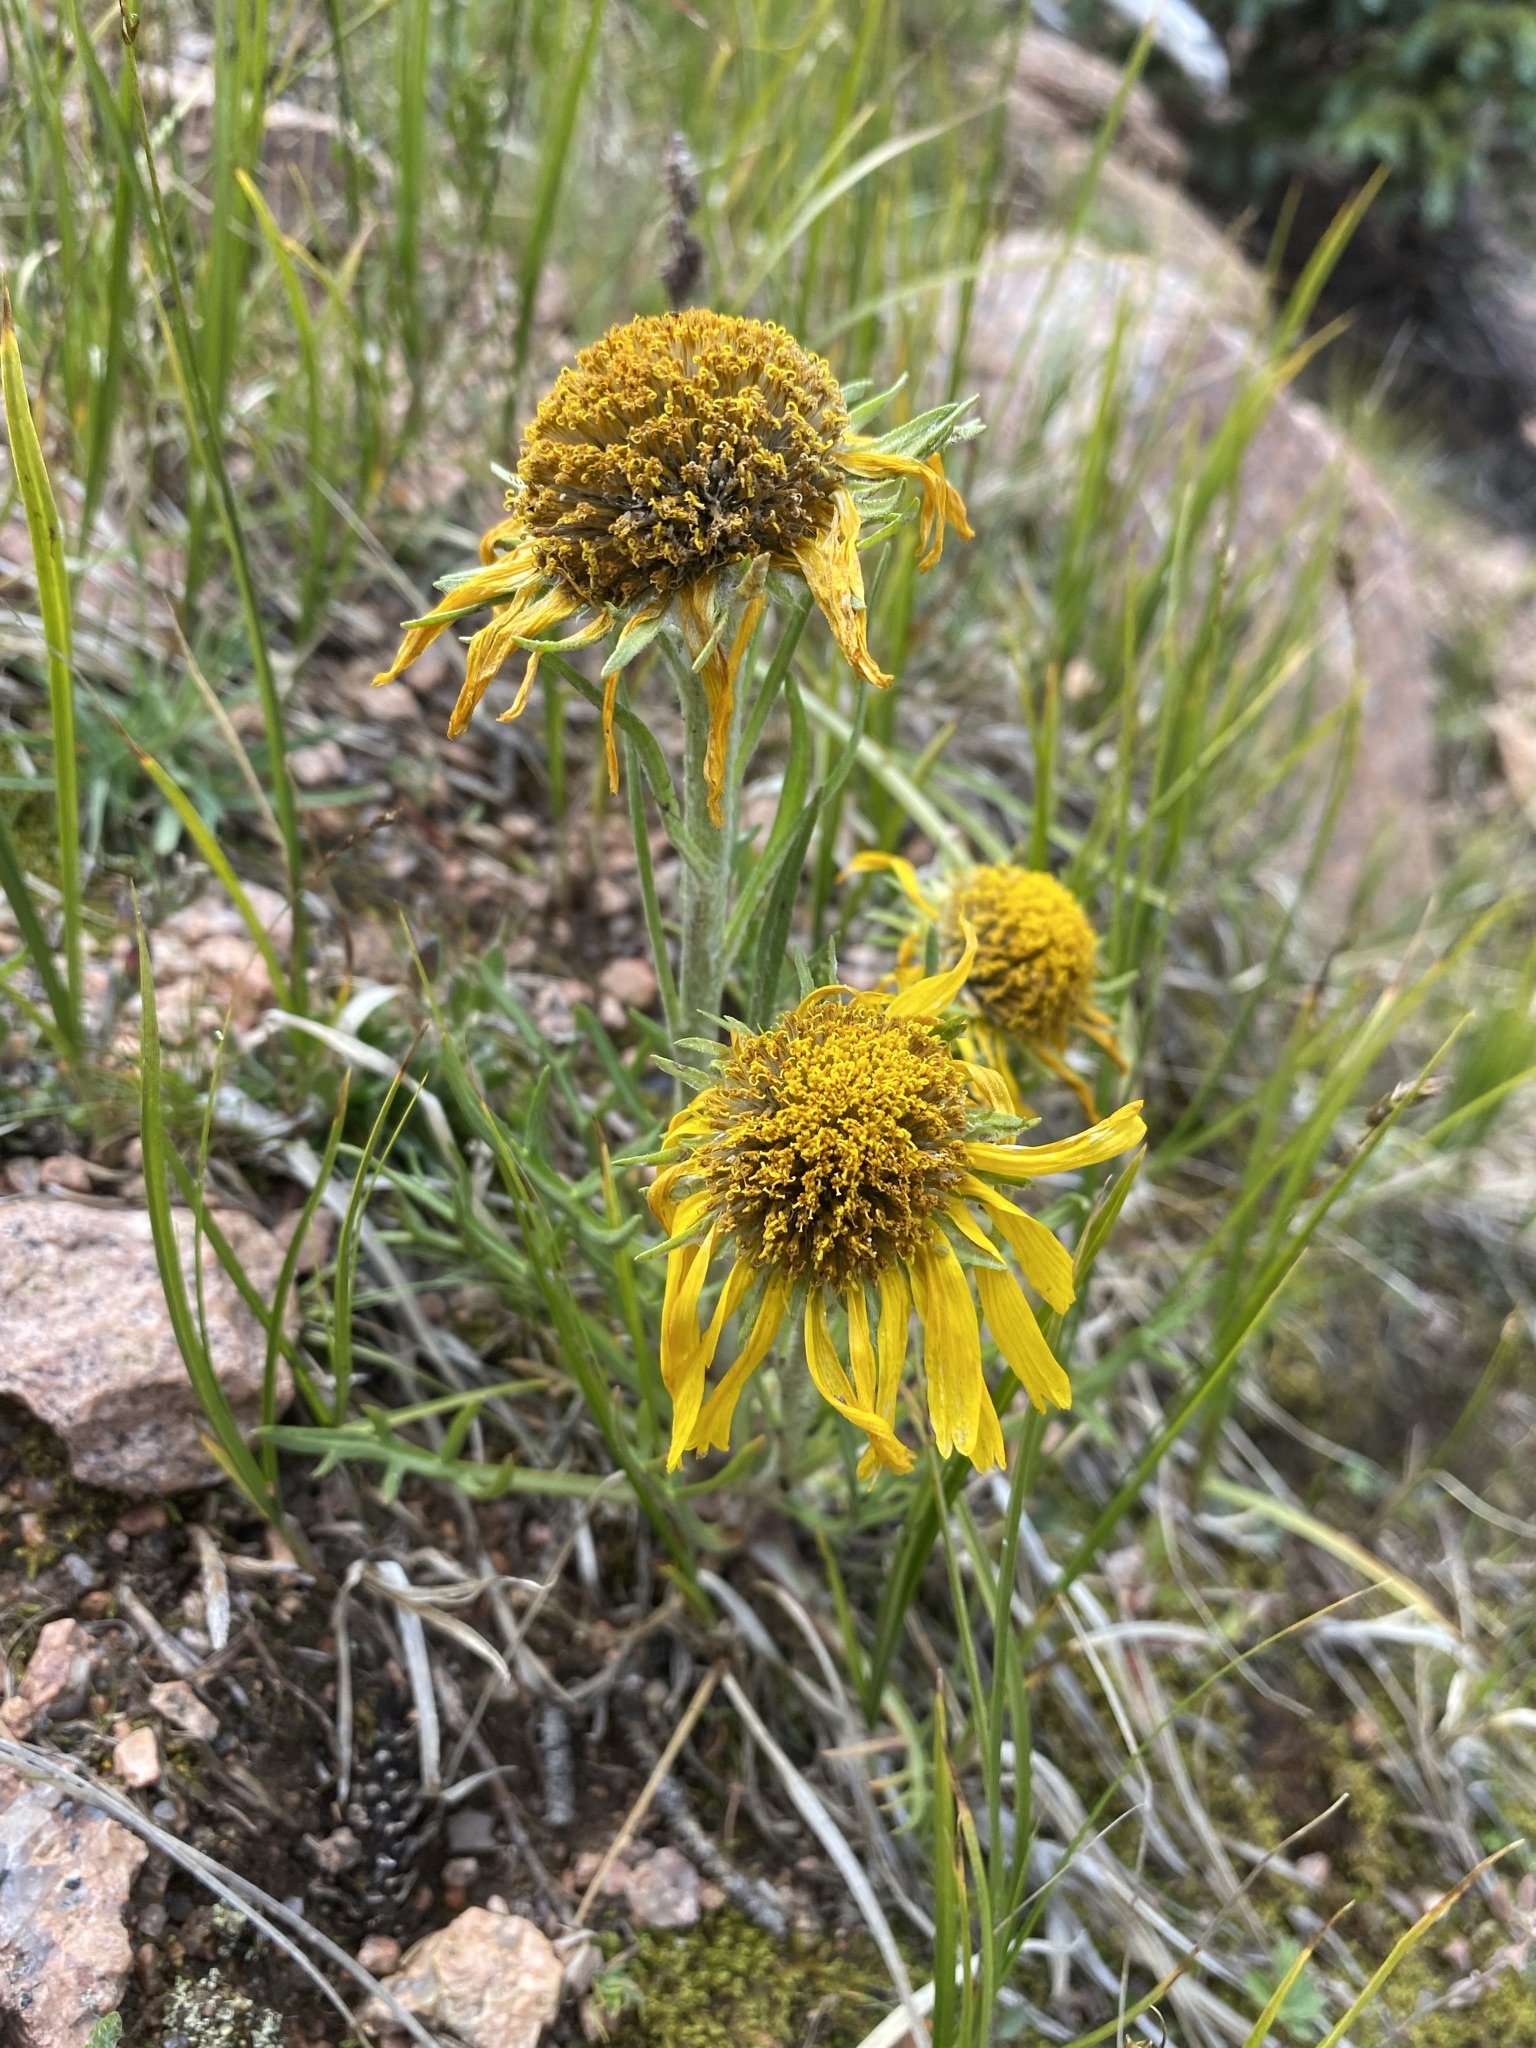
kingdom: Plantae
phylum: Tracheophyta
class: Magnoliopsida
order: Asterales
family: Asteraceae
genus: Hymenoxys
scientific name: Hymenoxys grandiflora
